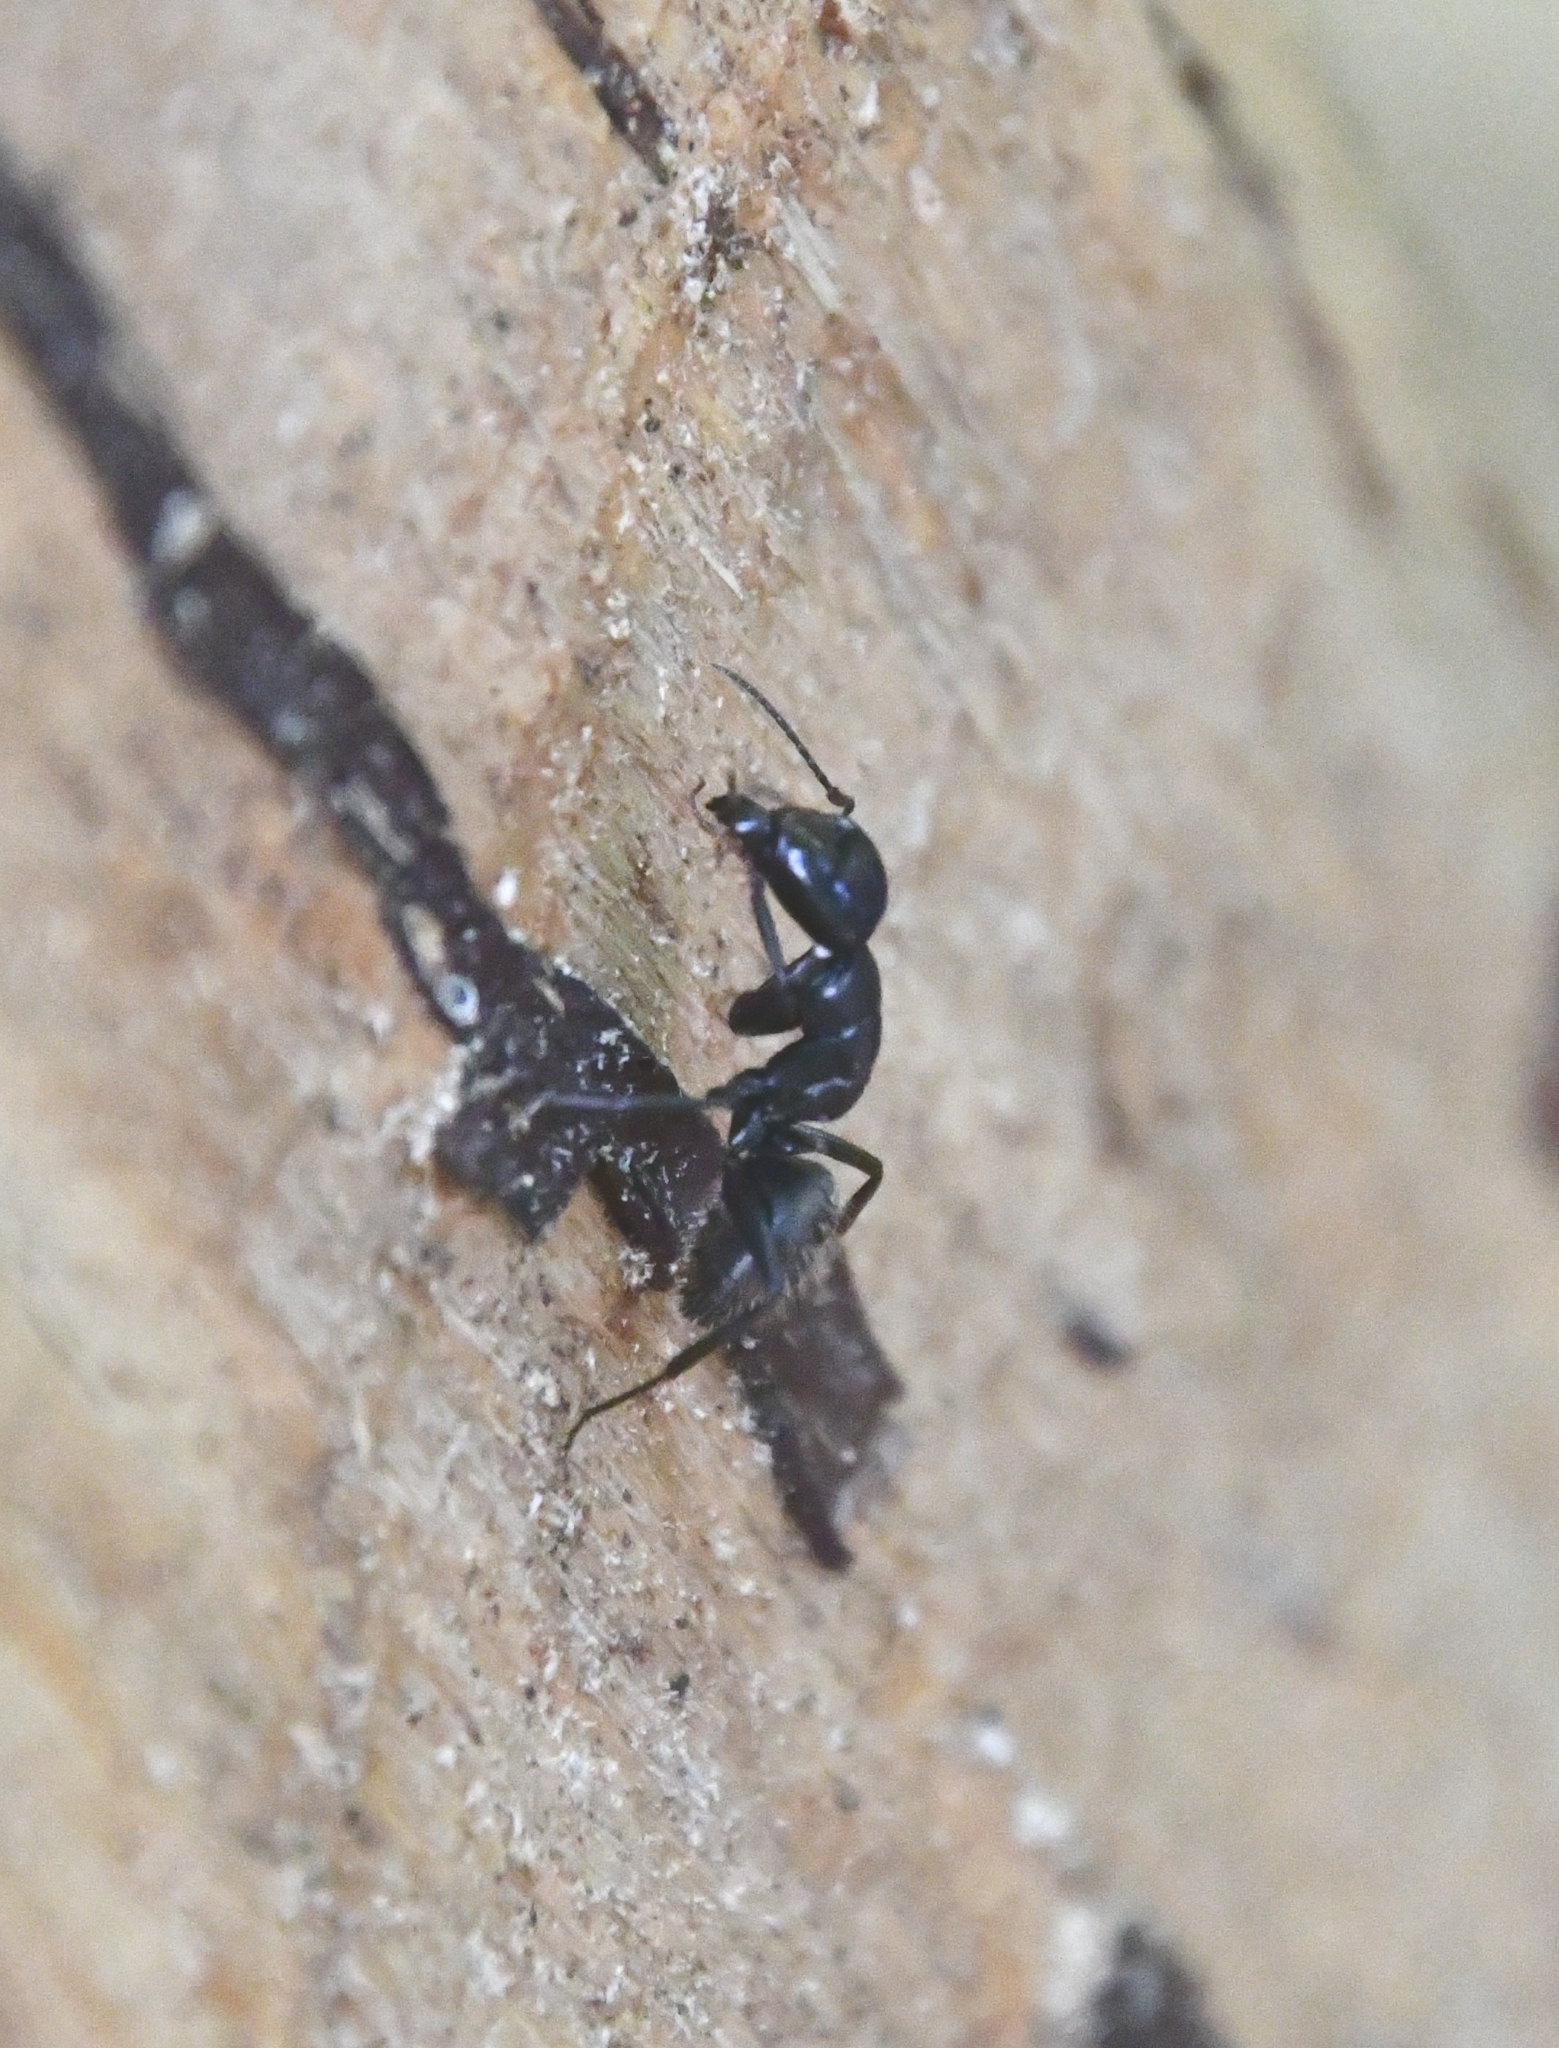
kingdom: Animalia
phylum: Arthropoda
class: Insecta
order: Hymenoptera
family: Formicidae
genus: Camponotus
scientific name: Camponotus vagus
